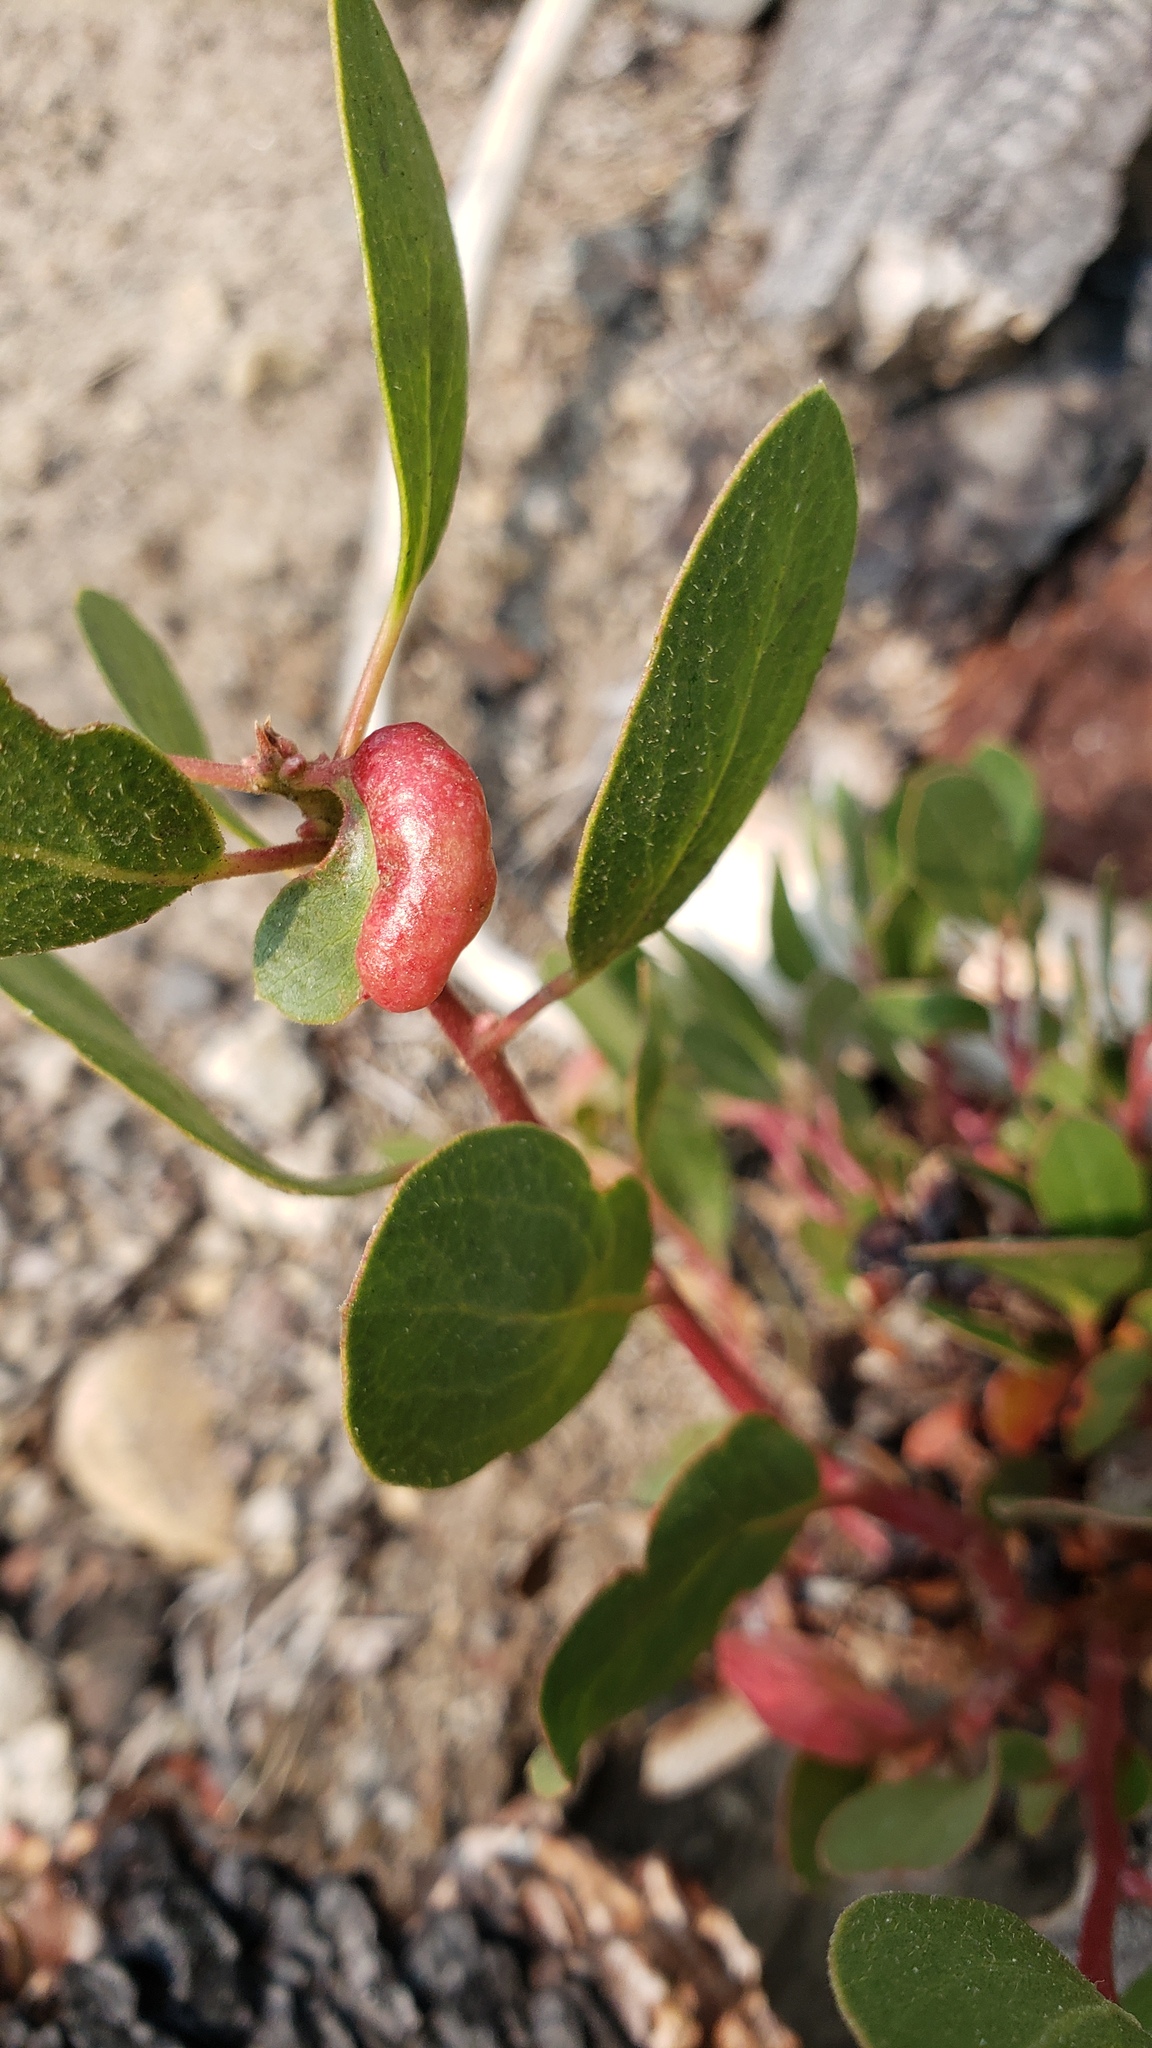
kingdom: Animalia
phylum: Arthropoda
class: Insecta
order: Hemiptera
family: Aphididae
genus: Tamalia
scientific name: Tamalia coweni
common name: Manzanita leafgall aphid
